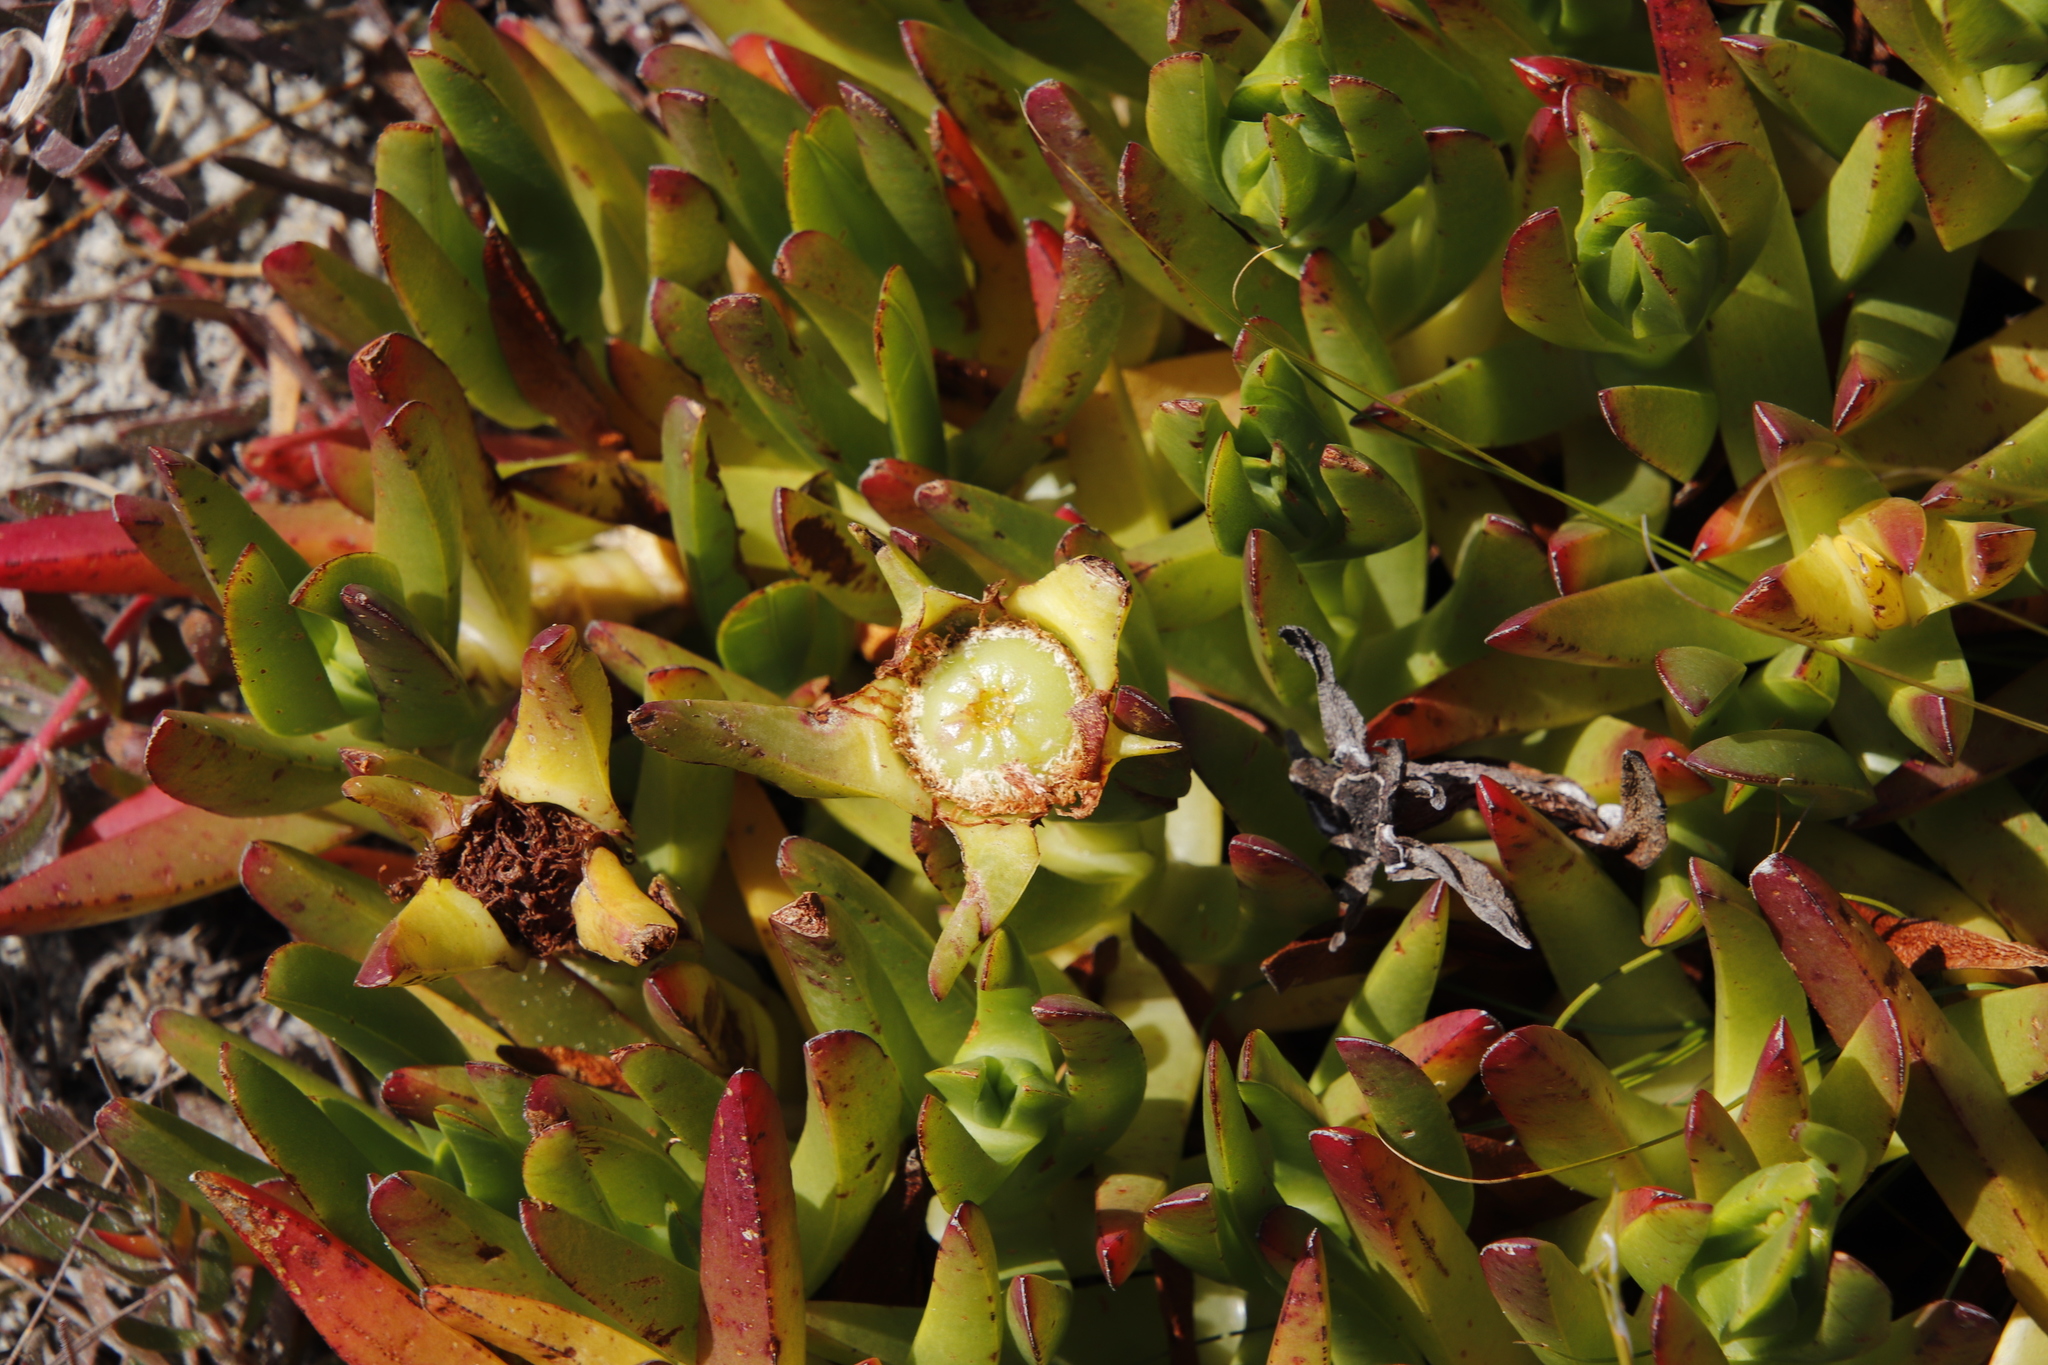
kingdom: Plantae
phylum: Tracheophyta
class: Magnoliopsida
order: Caryophyllales
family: Aizoaceae
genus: Carpobrotus
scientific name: Carpobrotus edulis
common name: Hottentot-fig
